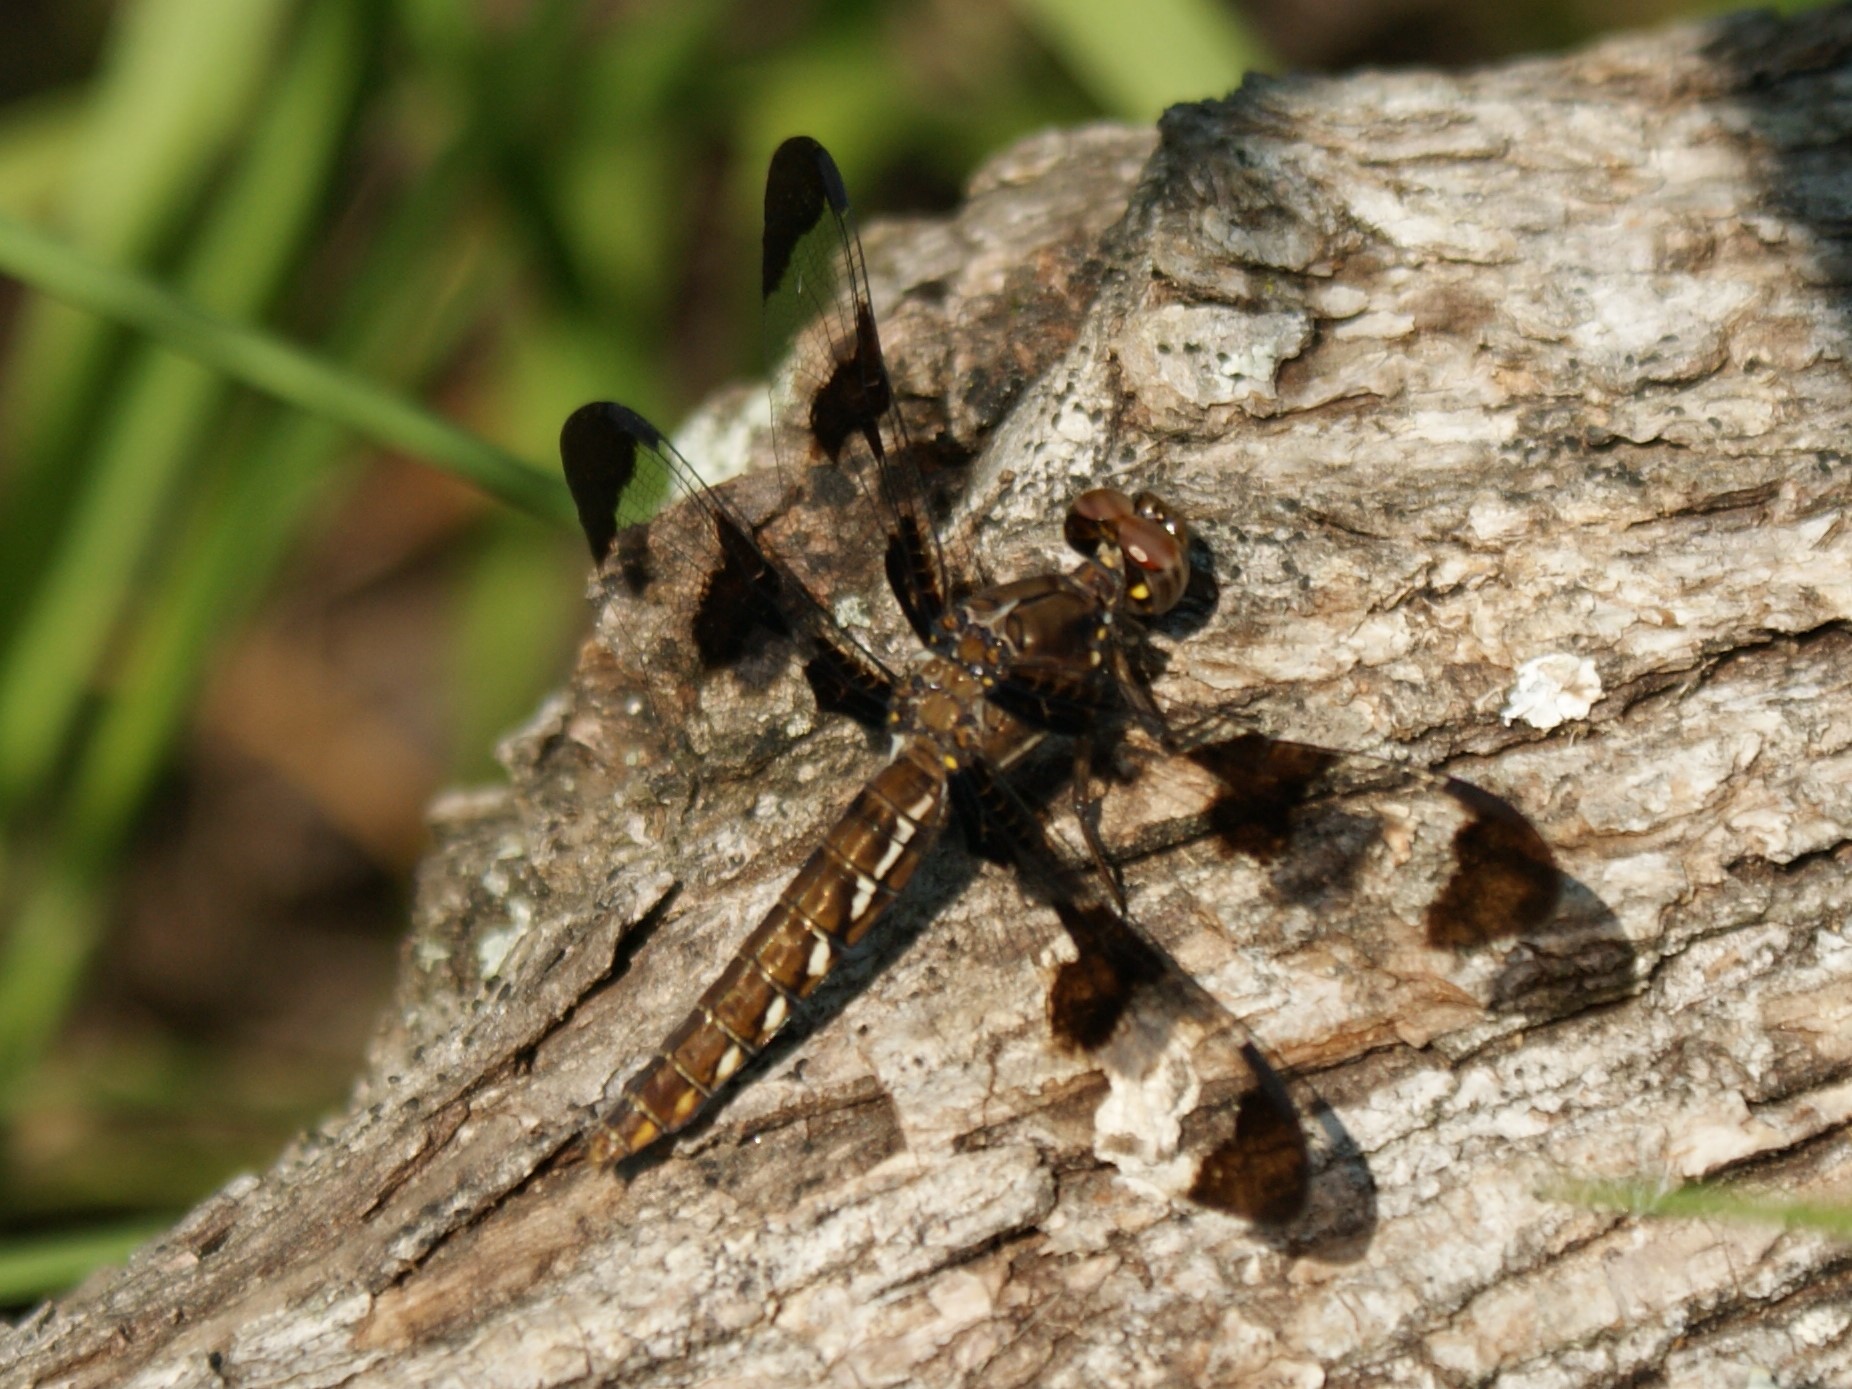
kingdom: Animalia
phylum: Arthropoda
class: Insecta
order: Odonata
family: Libellulidae
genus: Plathemis
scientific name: Plathemis lydia
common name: Common whitetail
